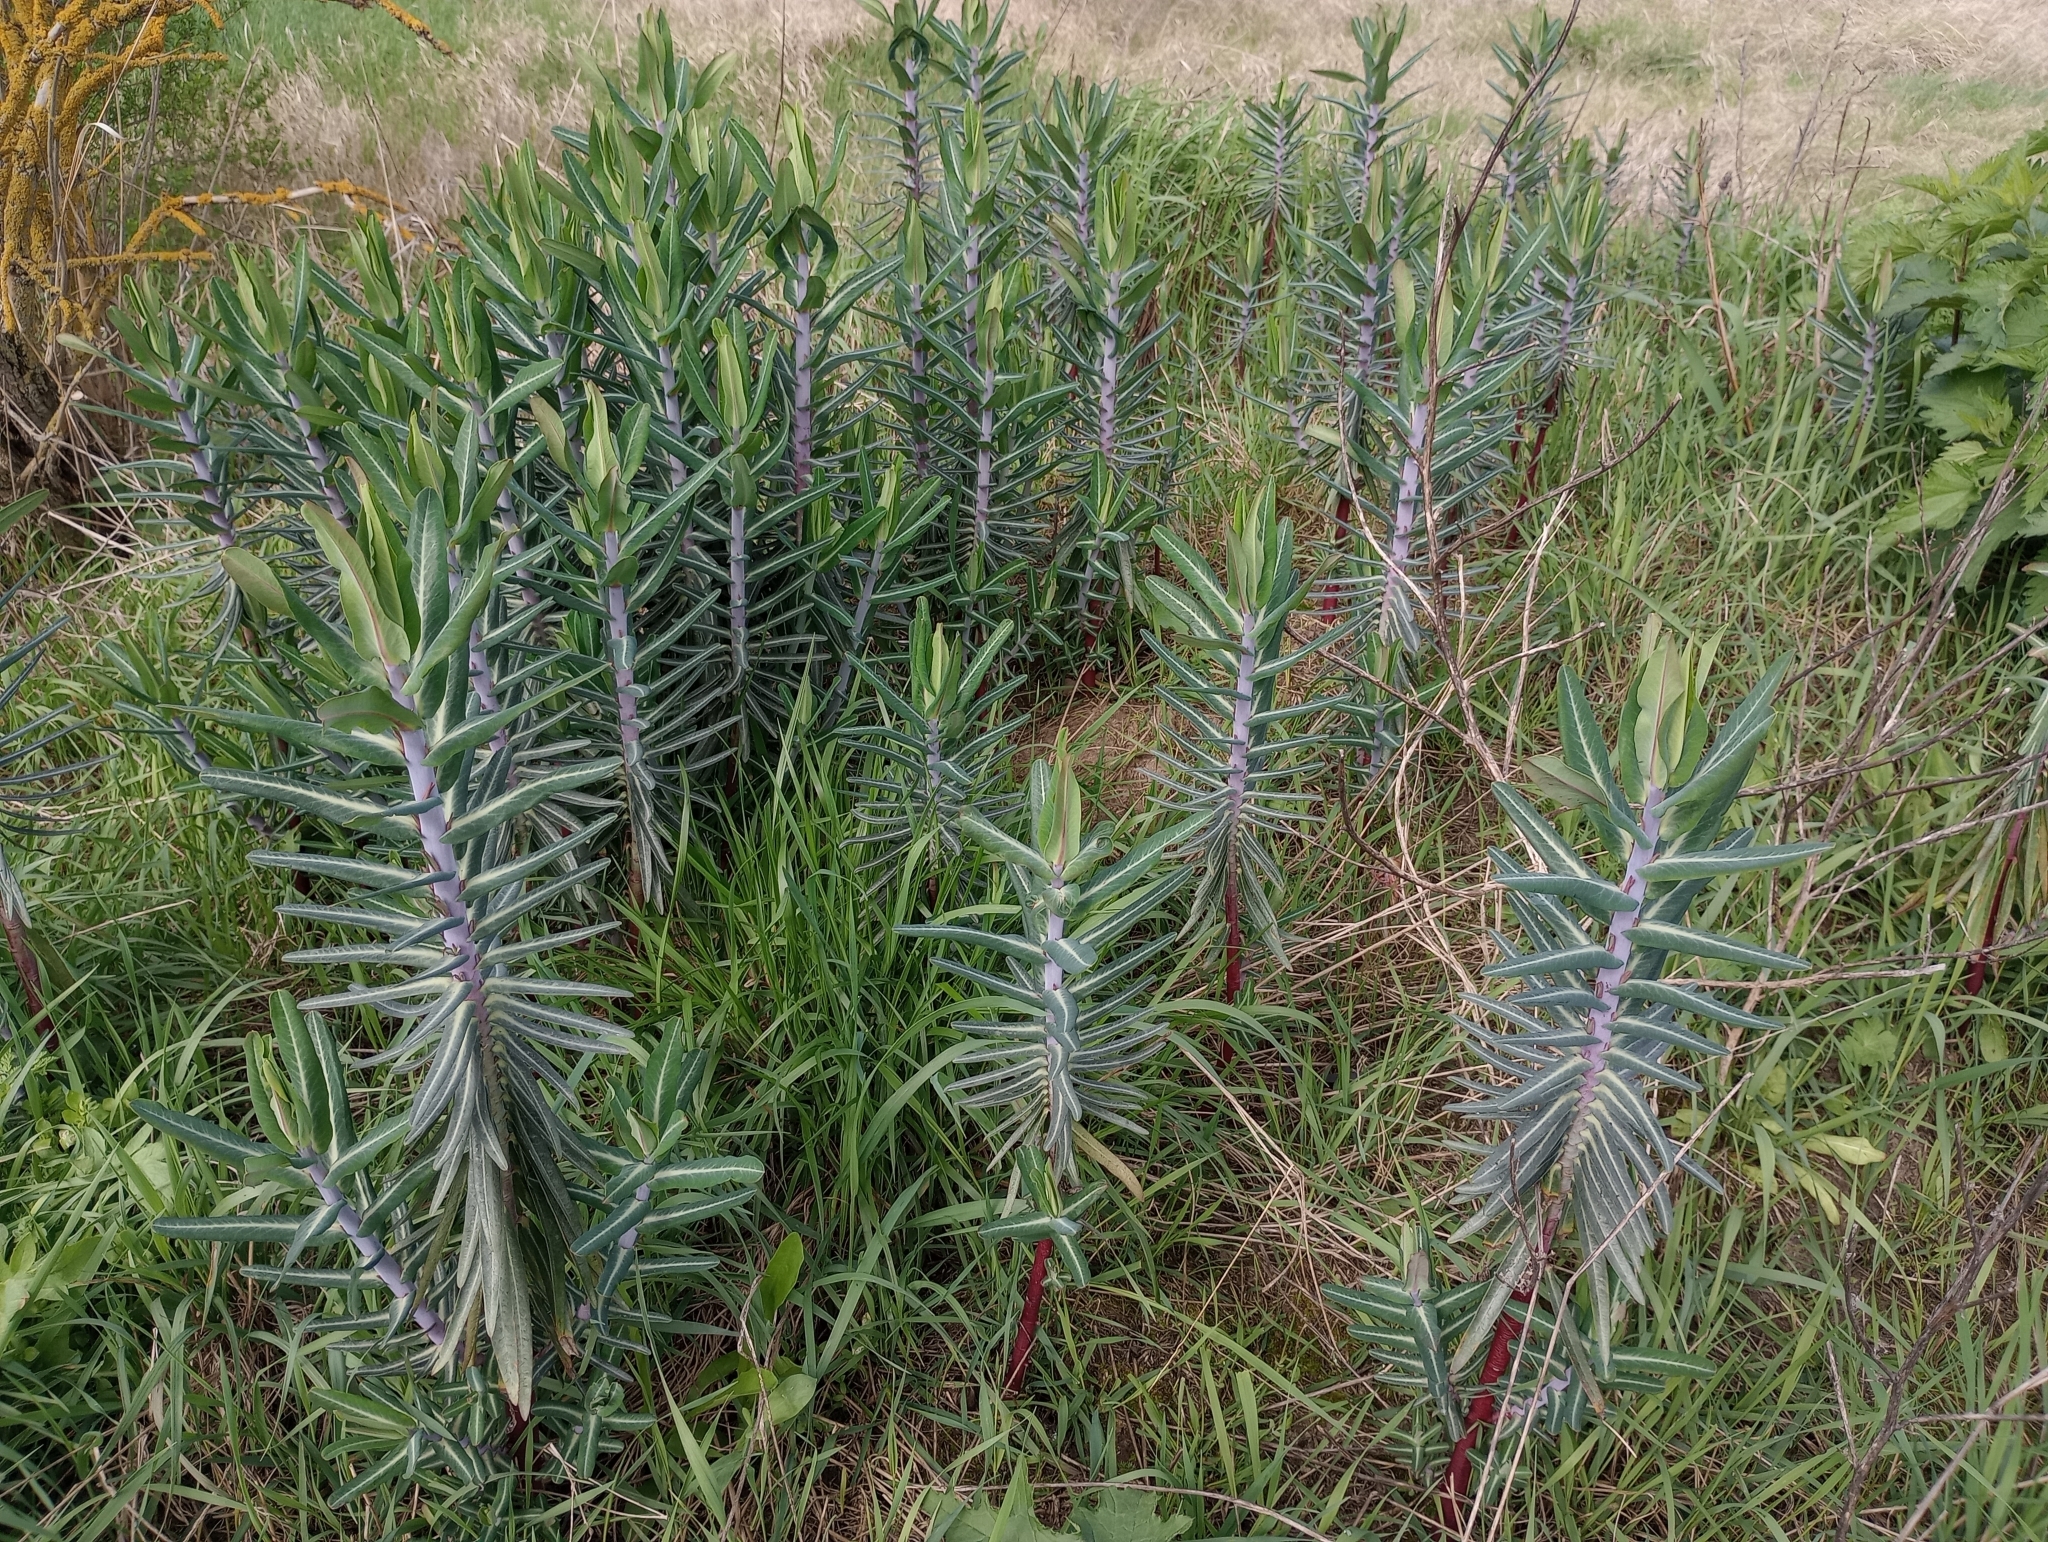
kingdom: Plantae
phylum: Tracheophyta
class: Magnoliopsida
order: Malpighiales
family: Euphorbiaceae
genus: Euphorbia
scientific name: Euphorbia lathyris
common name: Caper spurge
